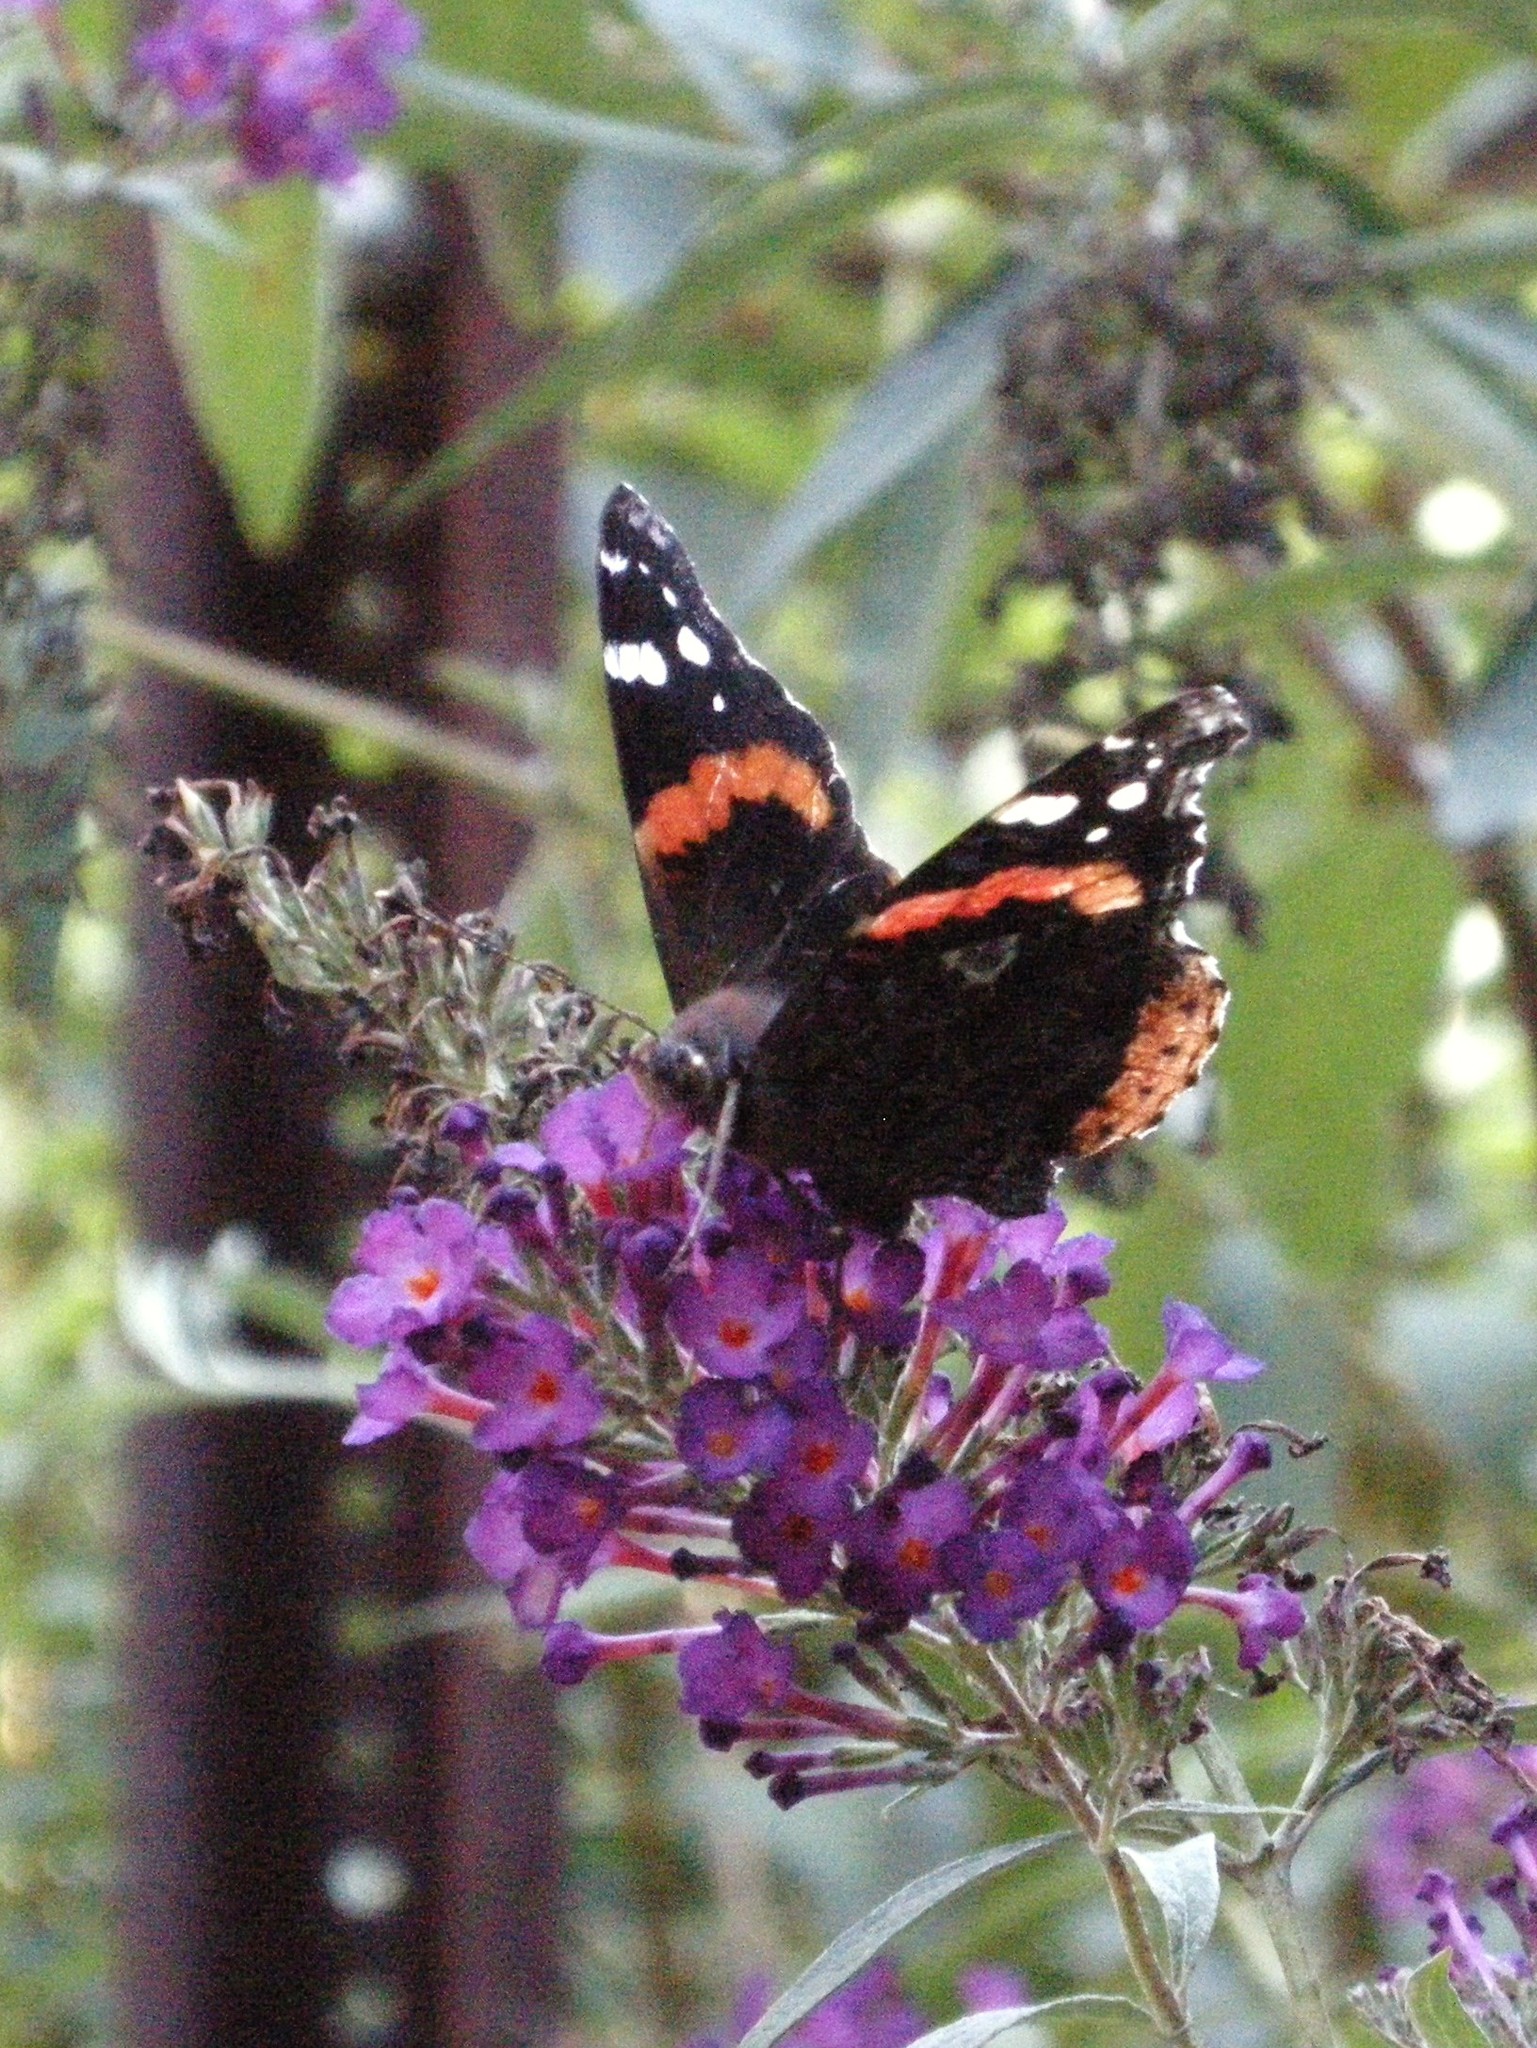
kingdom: Animalia
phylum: Arthropoda
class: Insecta
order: Lepidoptera
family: Nymphalidae
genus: Vanessa
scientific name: Vanessa atalanta
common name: Red admiral
